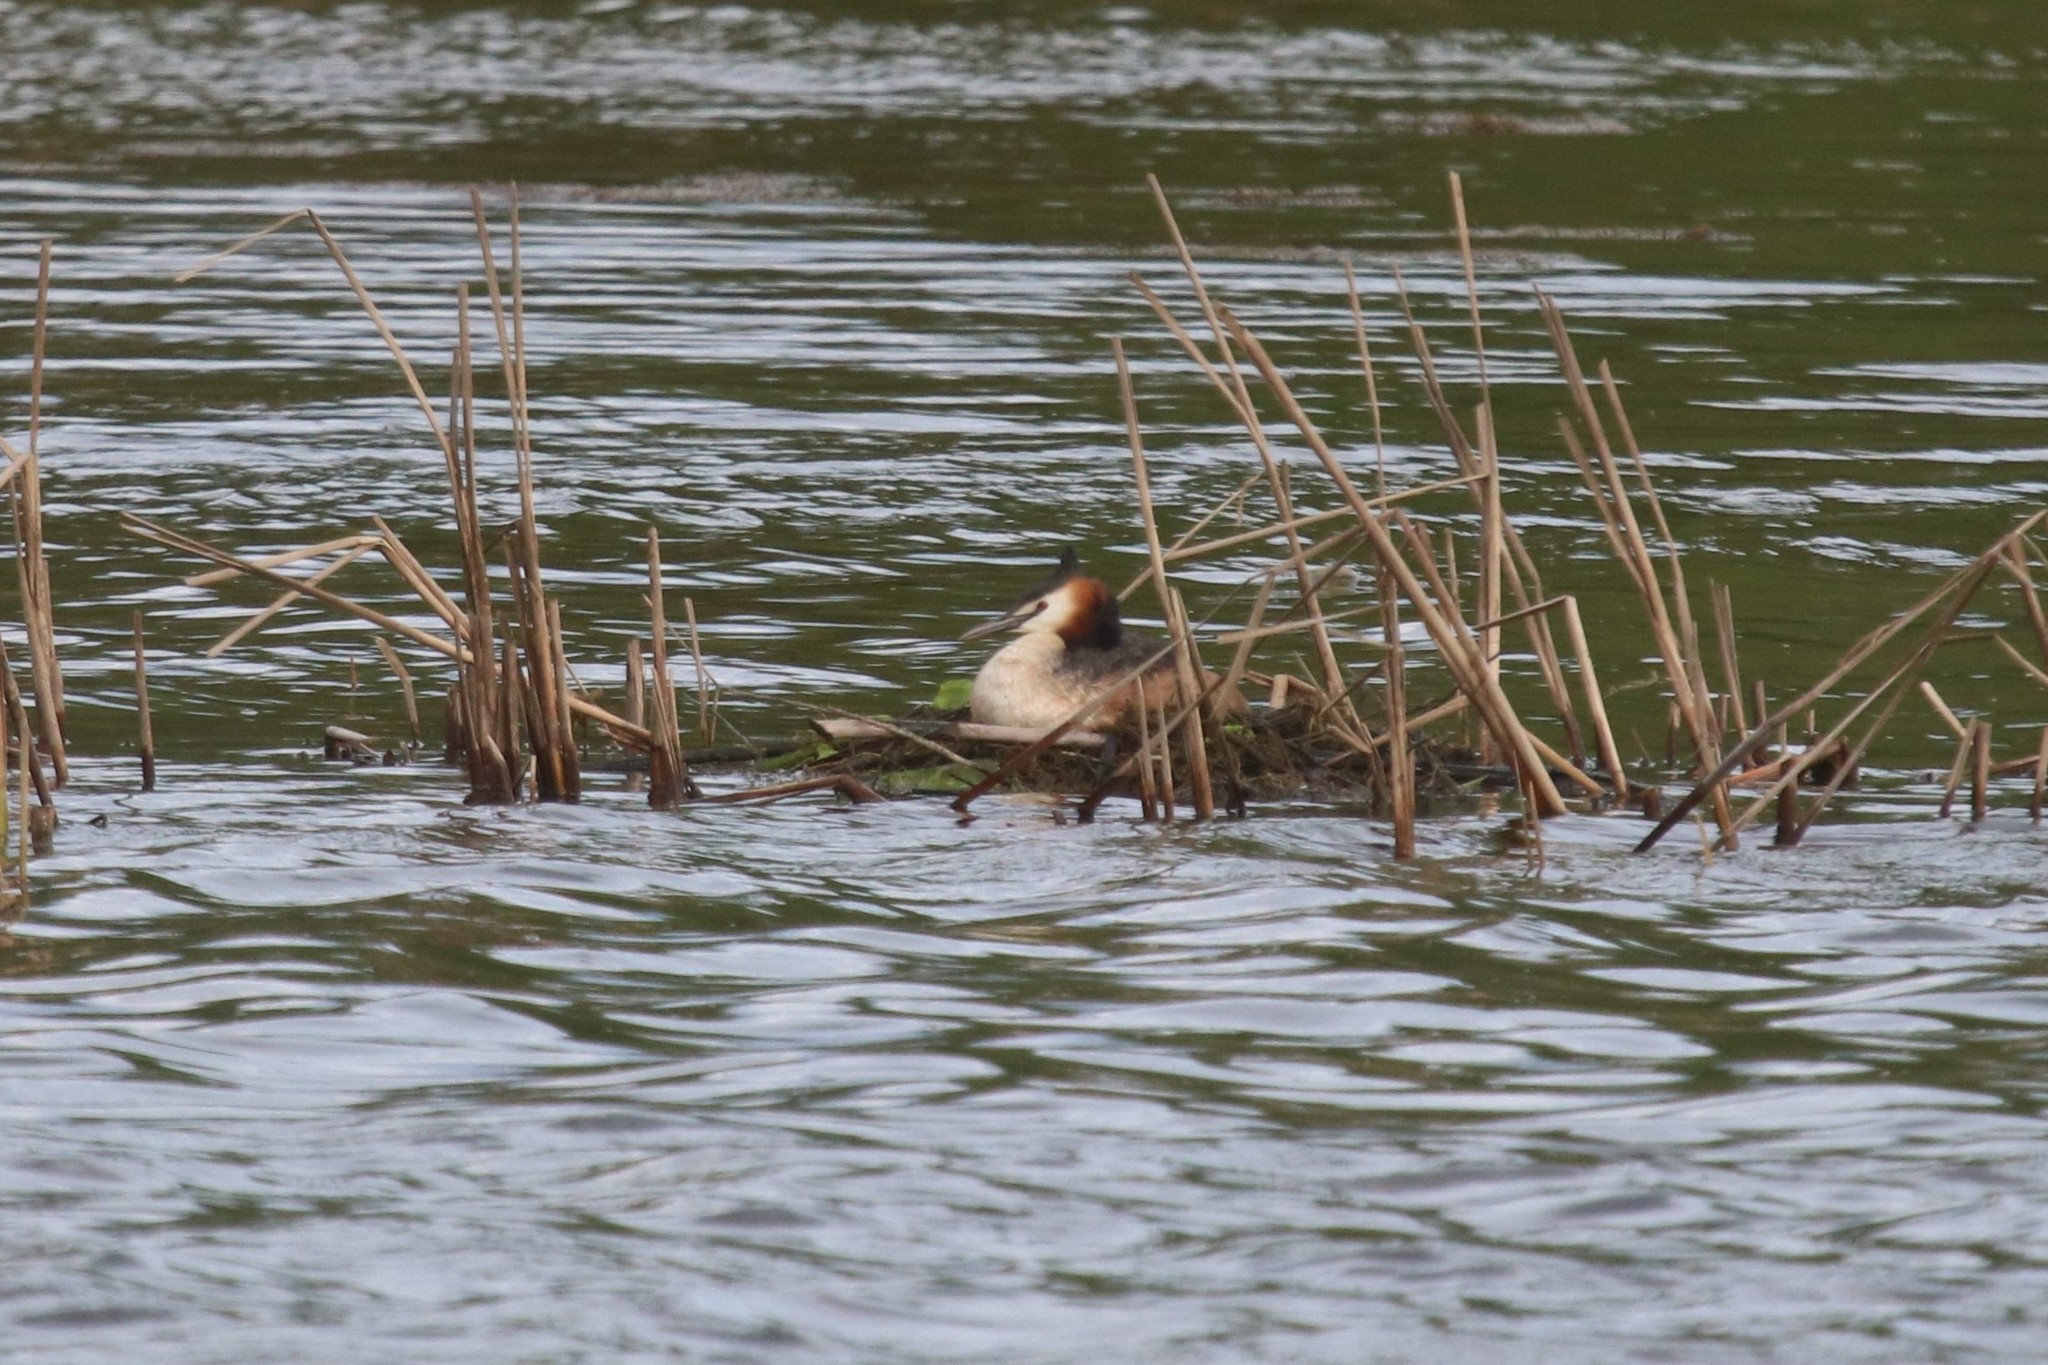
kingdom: Animalia
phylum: Chordata
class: Aves
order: Podicipediformes
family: Podicipedidae
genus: Podiceps
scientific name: Podiceps cristatus
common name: Great crested grebe
